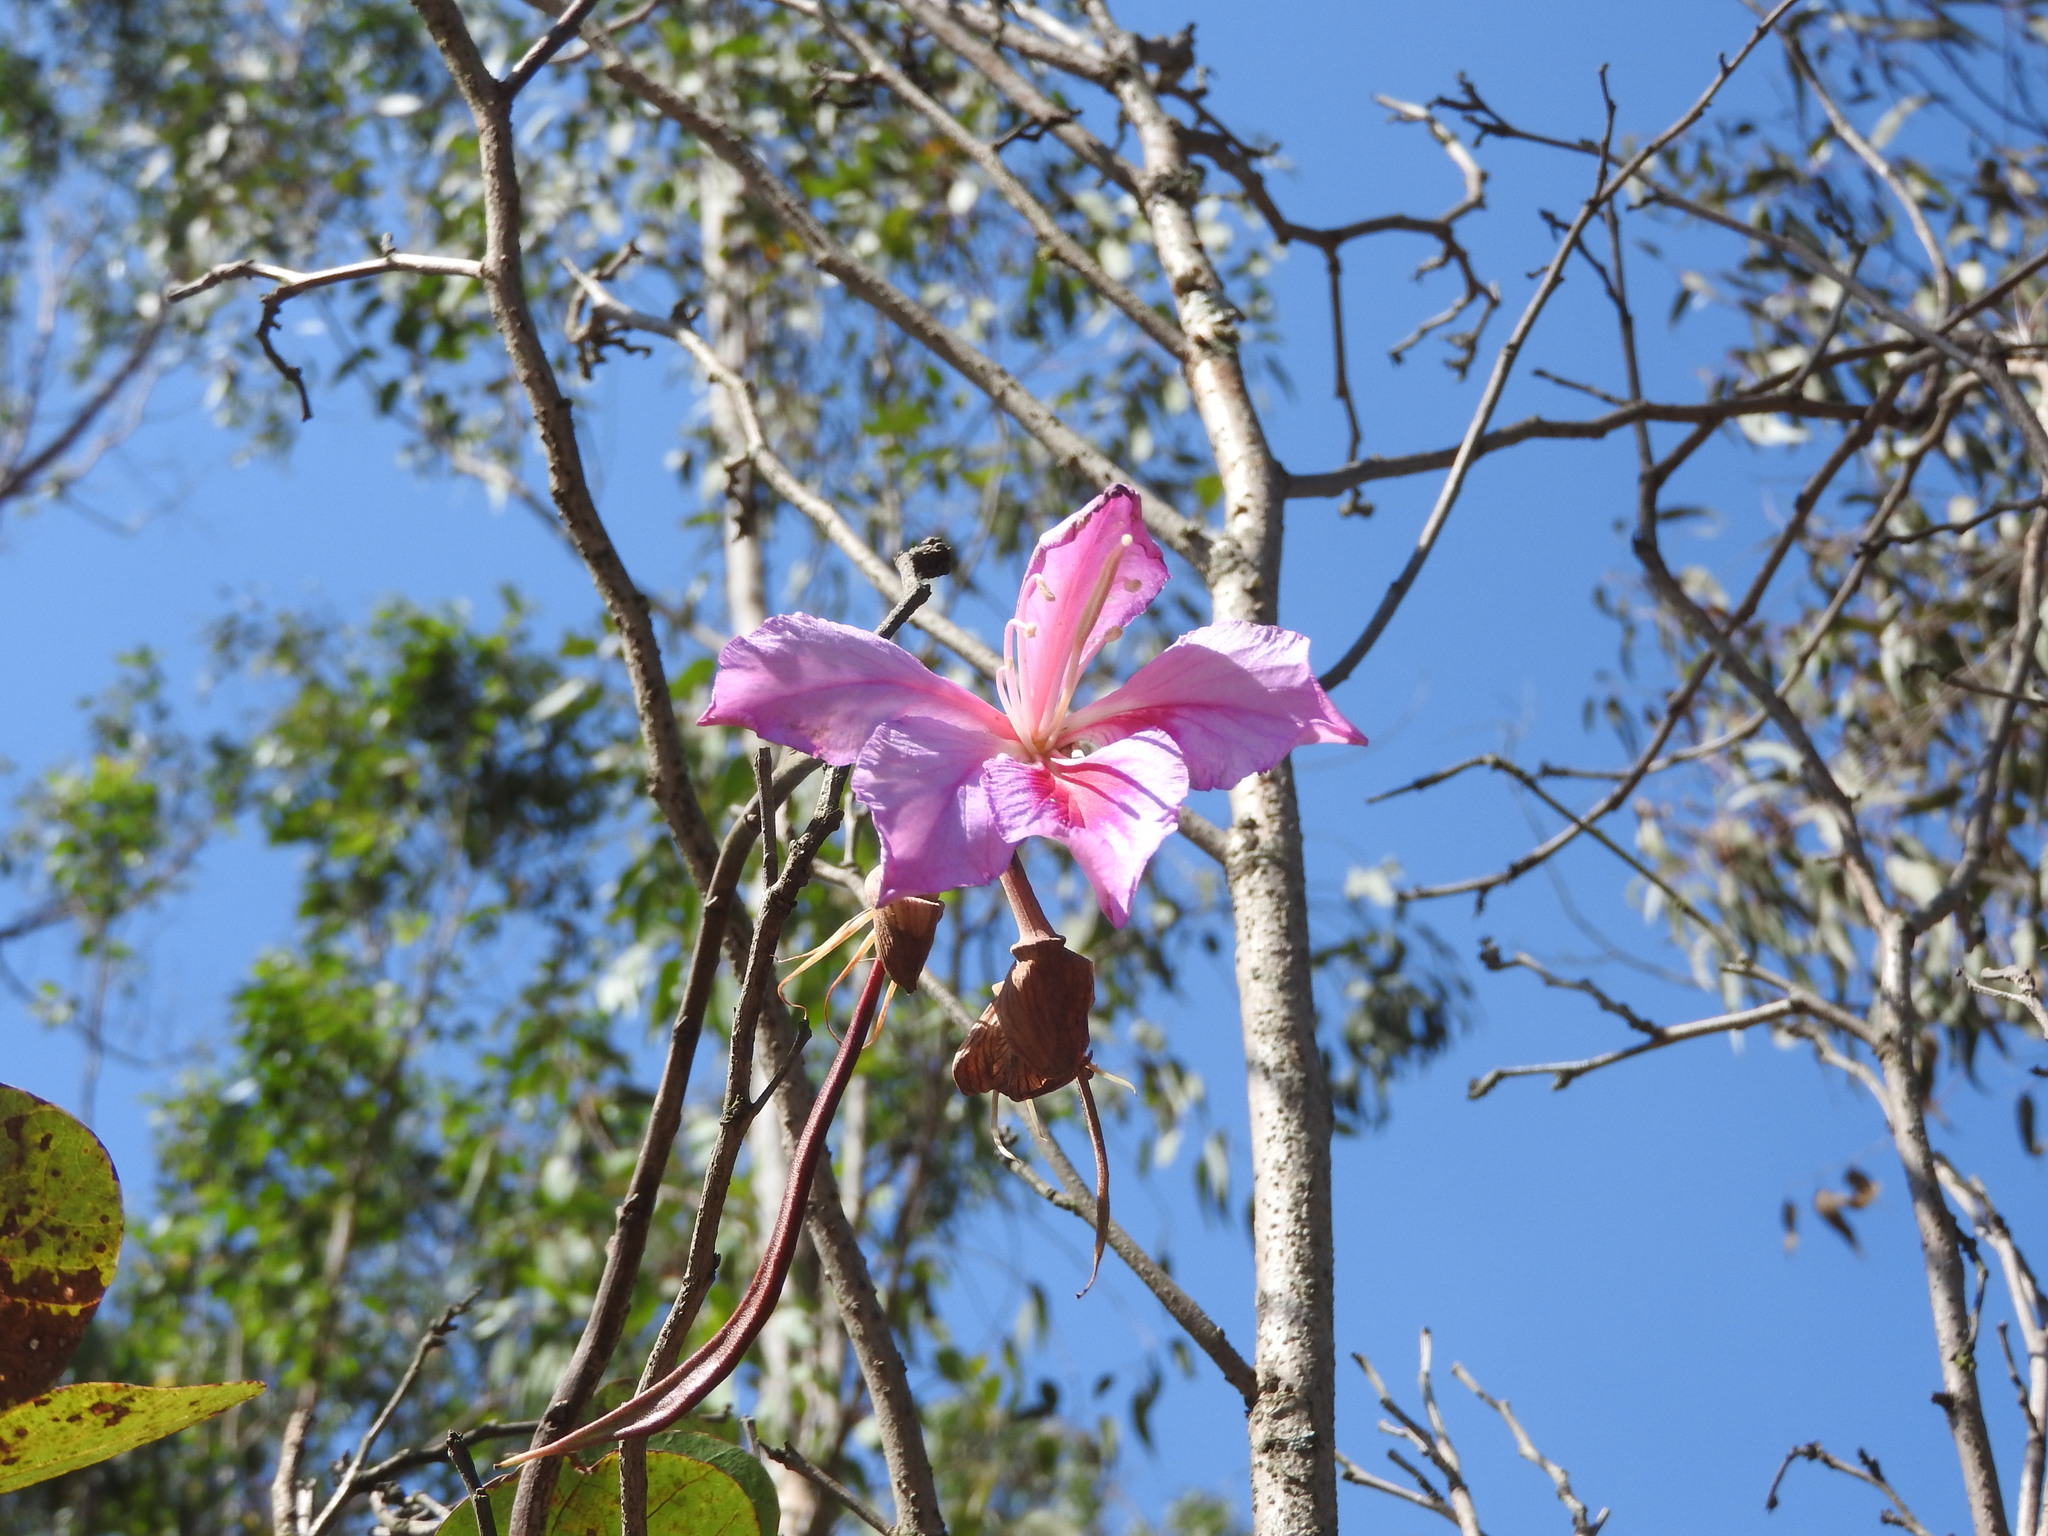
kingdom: Plantae
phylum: Tracheophyta
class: Magnoliopsida
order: Fabales
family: Fabaceae
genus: Bauhinia
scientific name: Bauhinia variegata
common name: Mountain ebony
